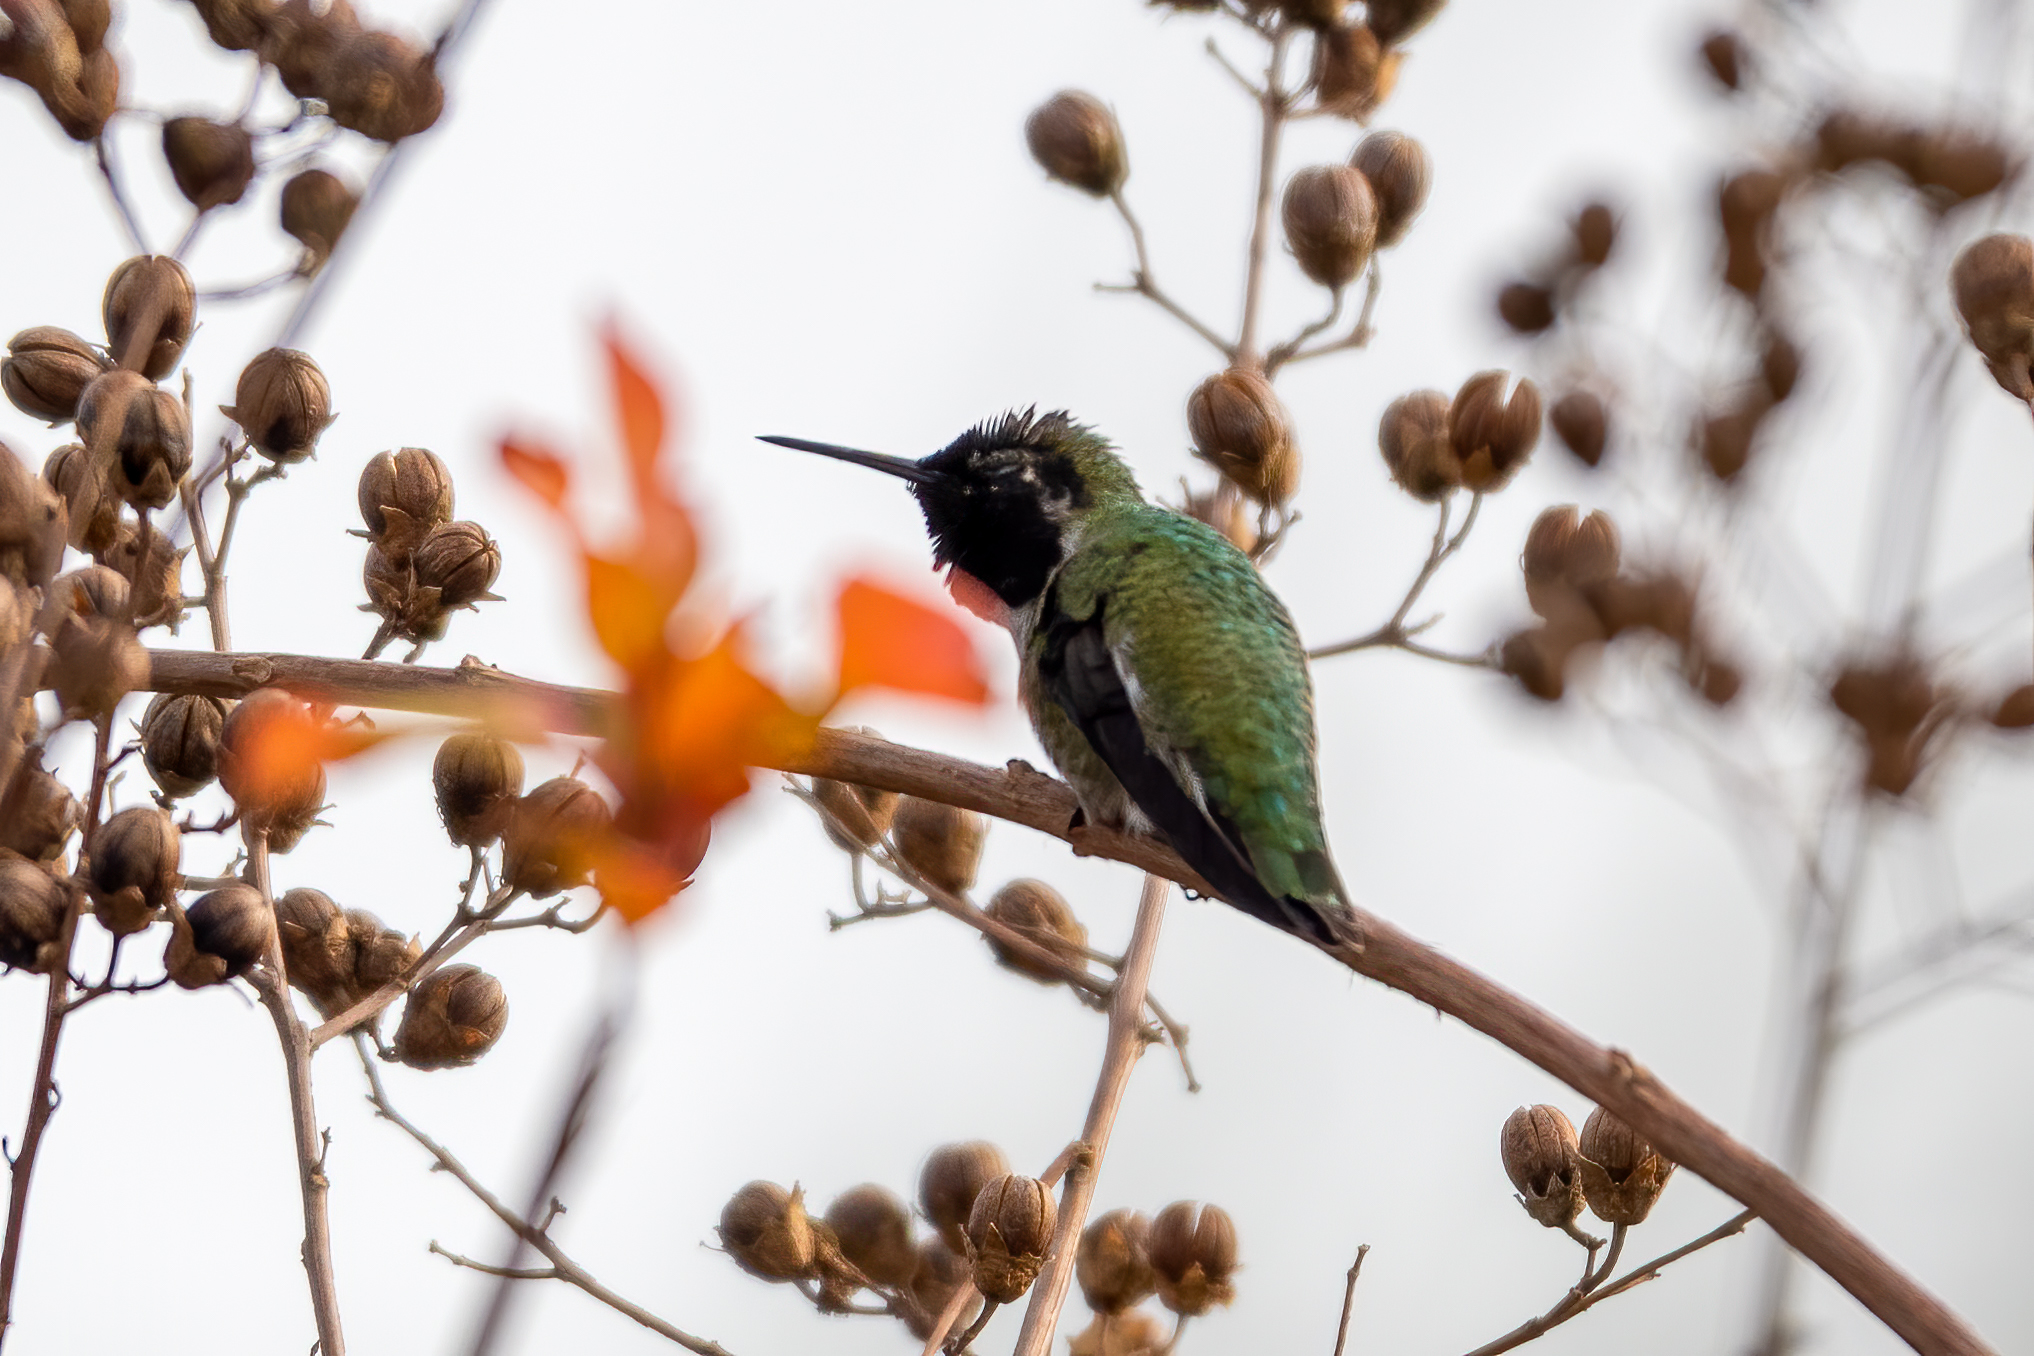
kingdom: Animalia
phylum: Chordata
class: Aves
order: Apodiformes
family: Trochilidae
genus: Calypte
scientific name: Calypte anna
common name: Anna's hummingbird
